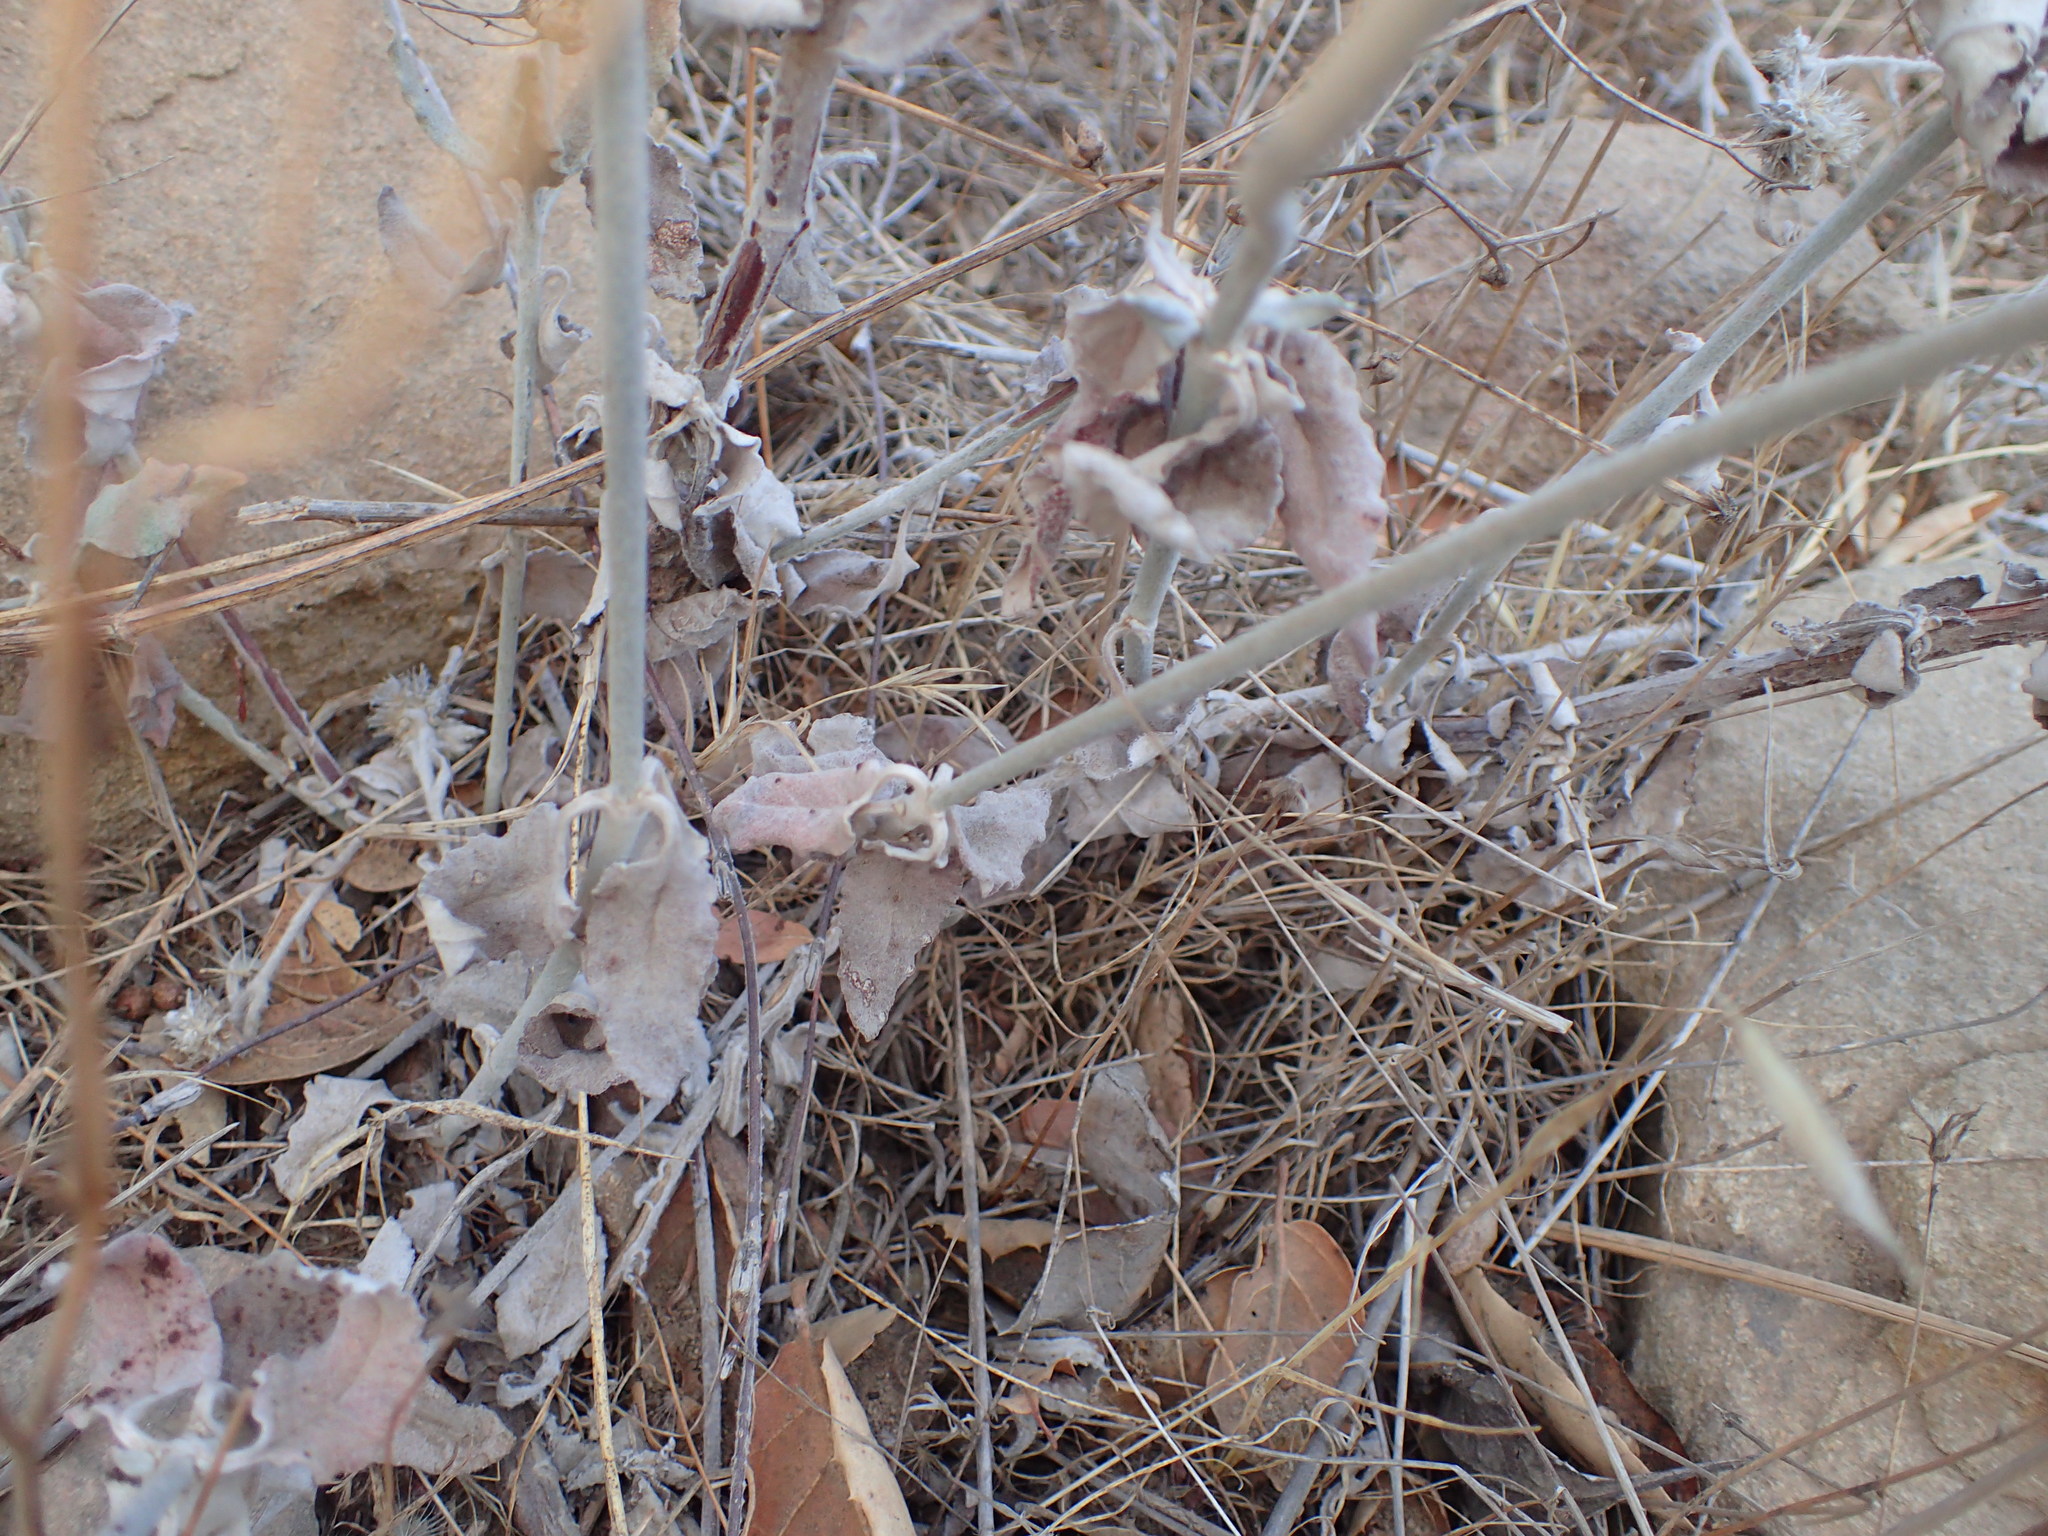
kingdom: Plantae
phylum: Tracheophyta
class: Magnoliopsida
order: Caryophyllales
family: Polygonaceae
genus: Eriogonum
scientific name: Eriogonum elongatum
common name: Long-stem wild buckwheat
